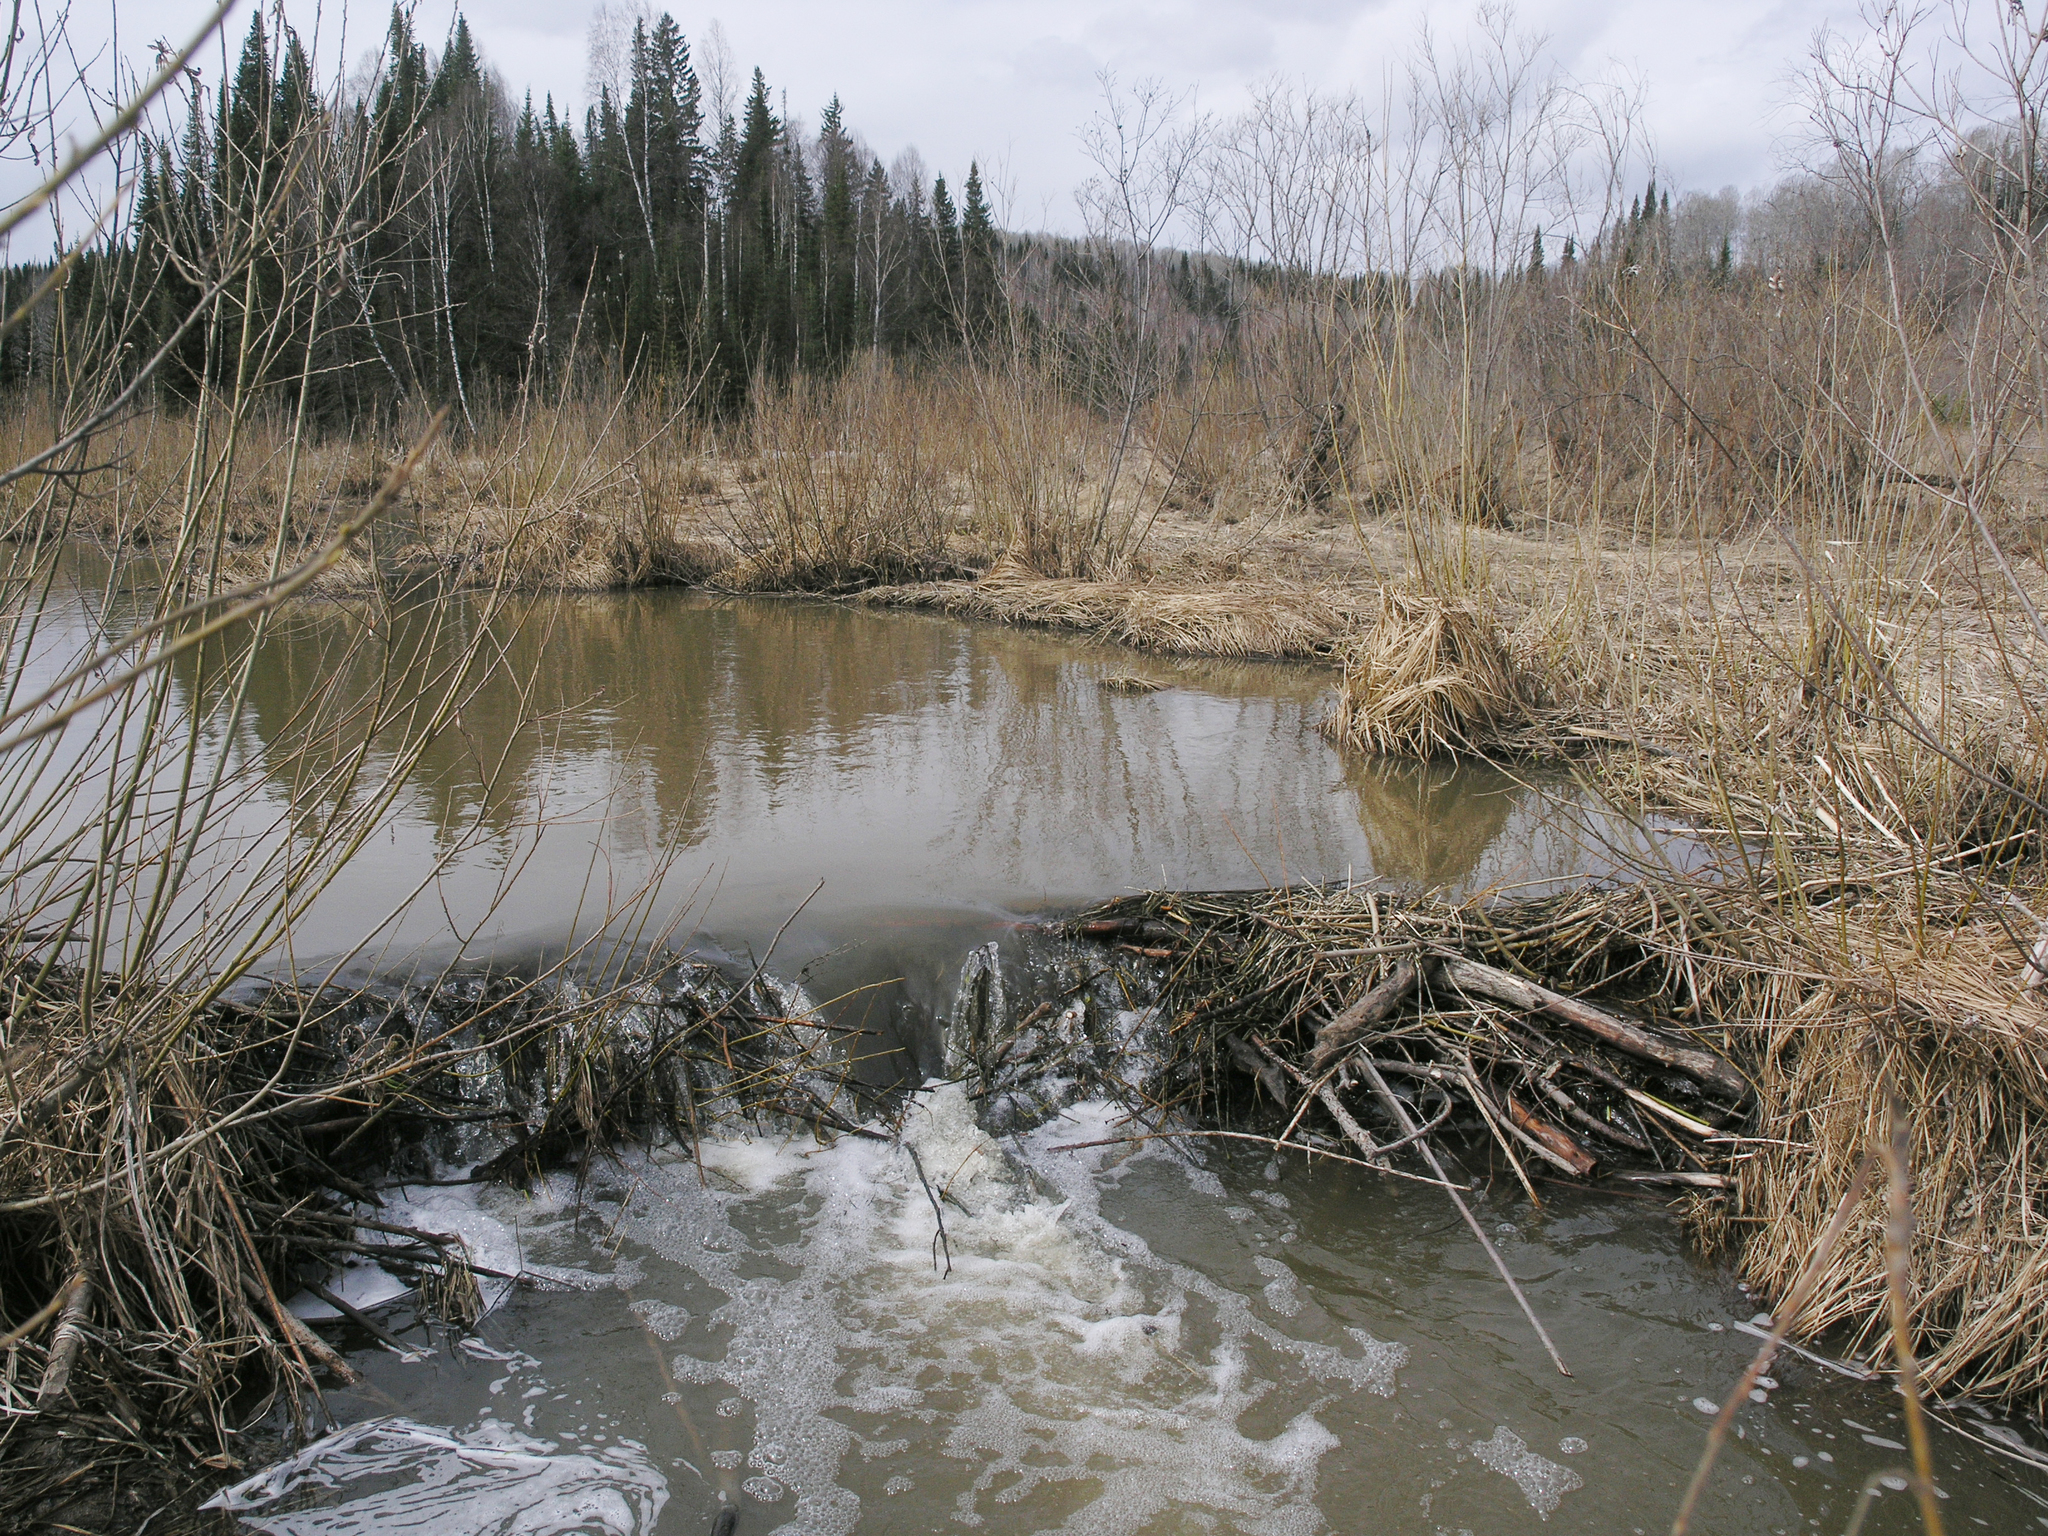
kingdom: Animalia
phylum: Chordata
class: Mammalia
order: Rodentia
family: Castoridae
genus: Castor
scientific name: Castor fiber
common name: Eurasian beaver
